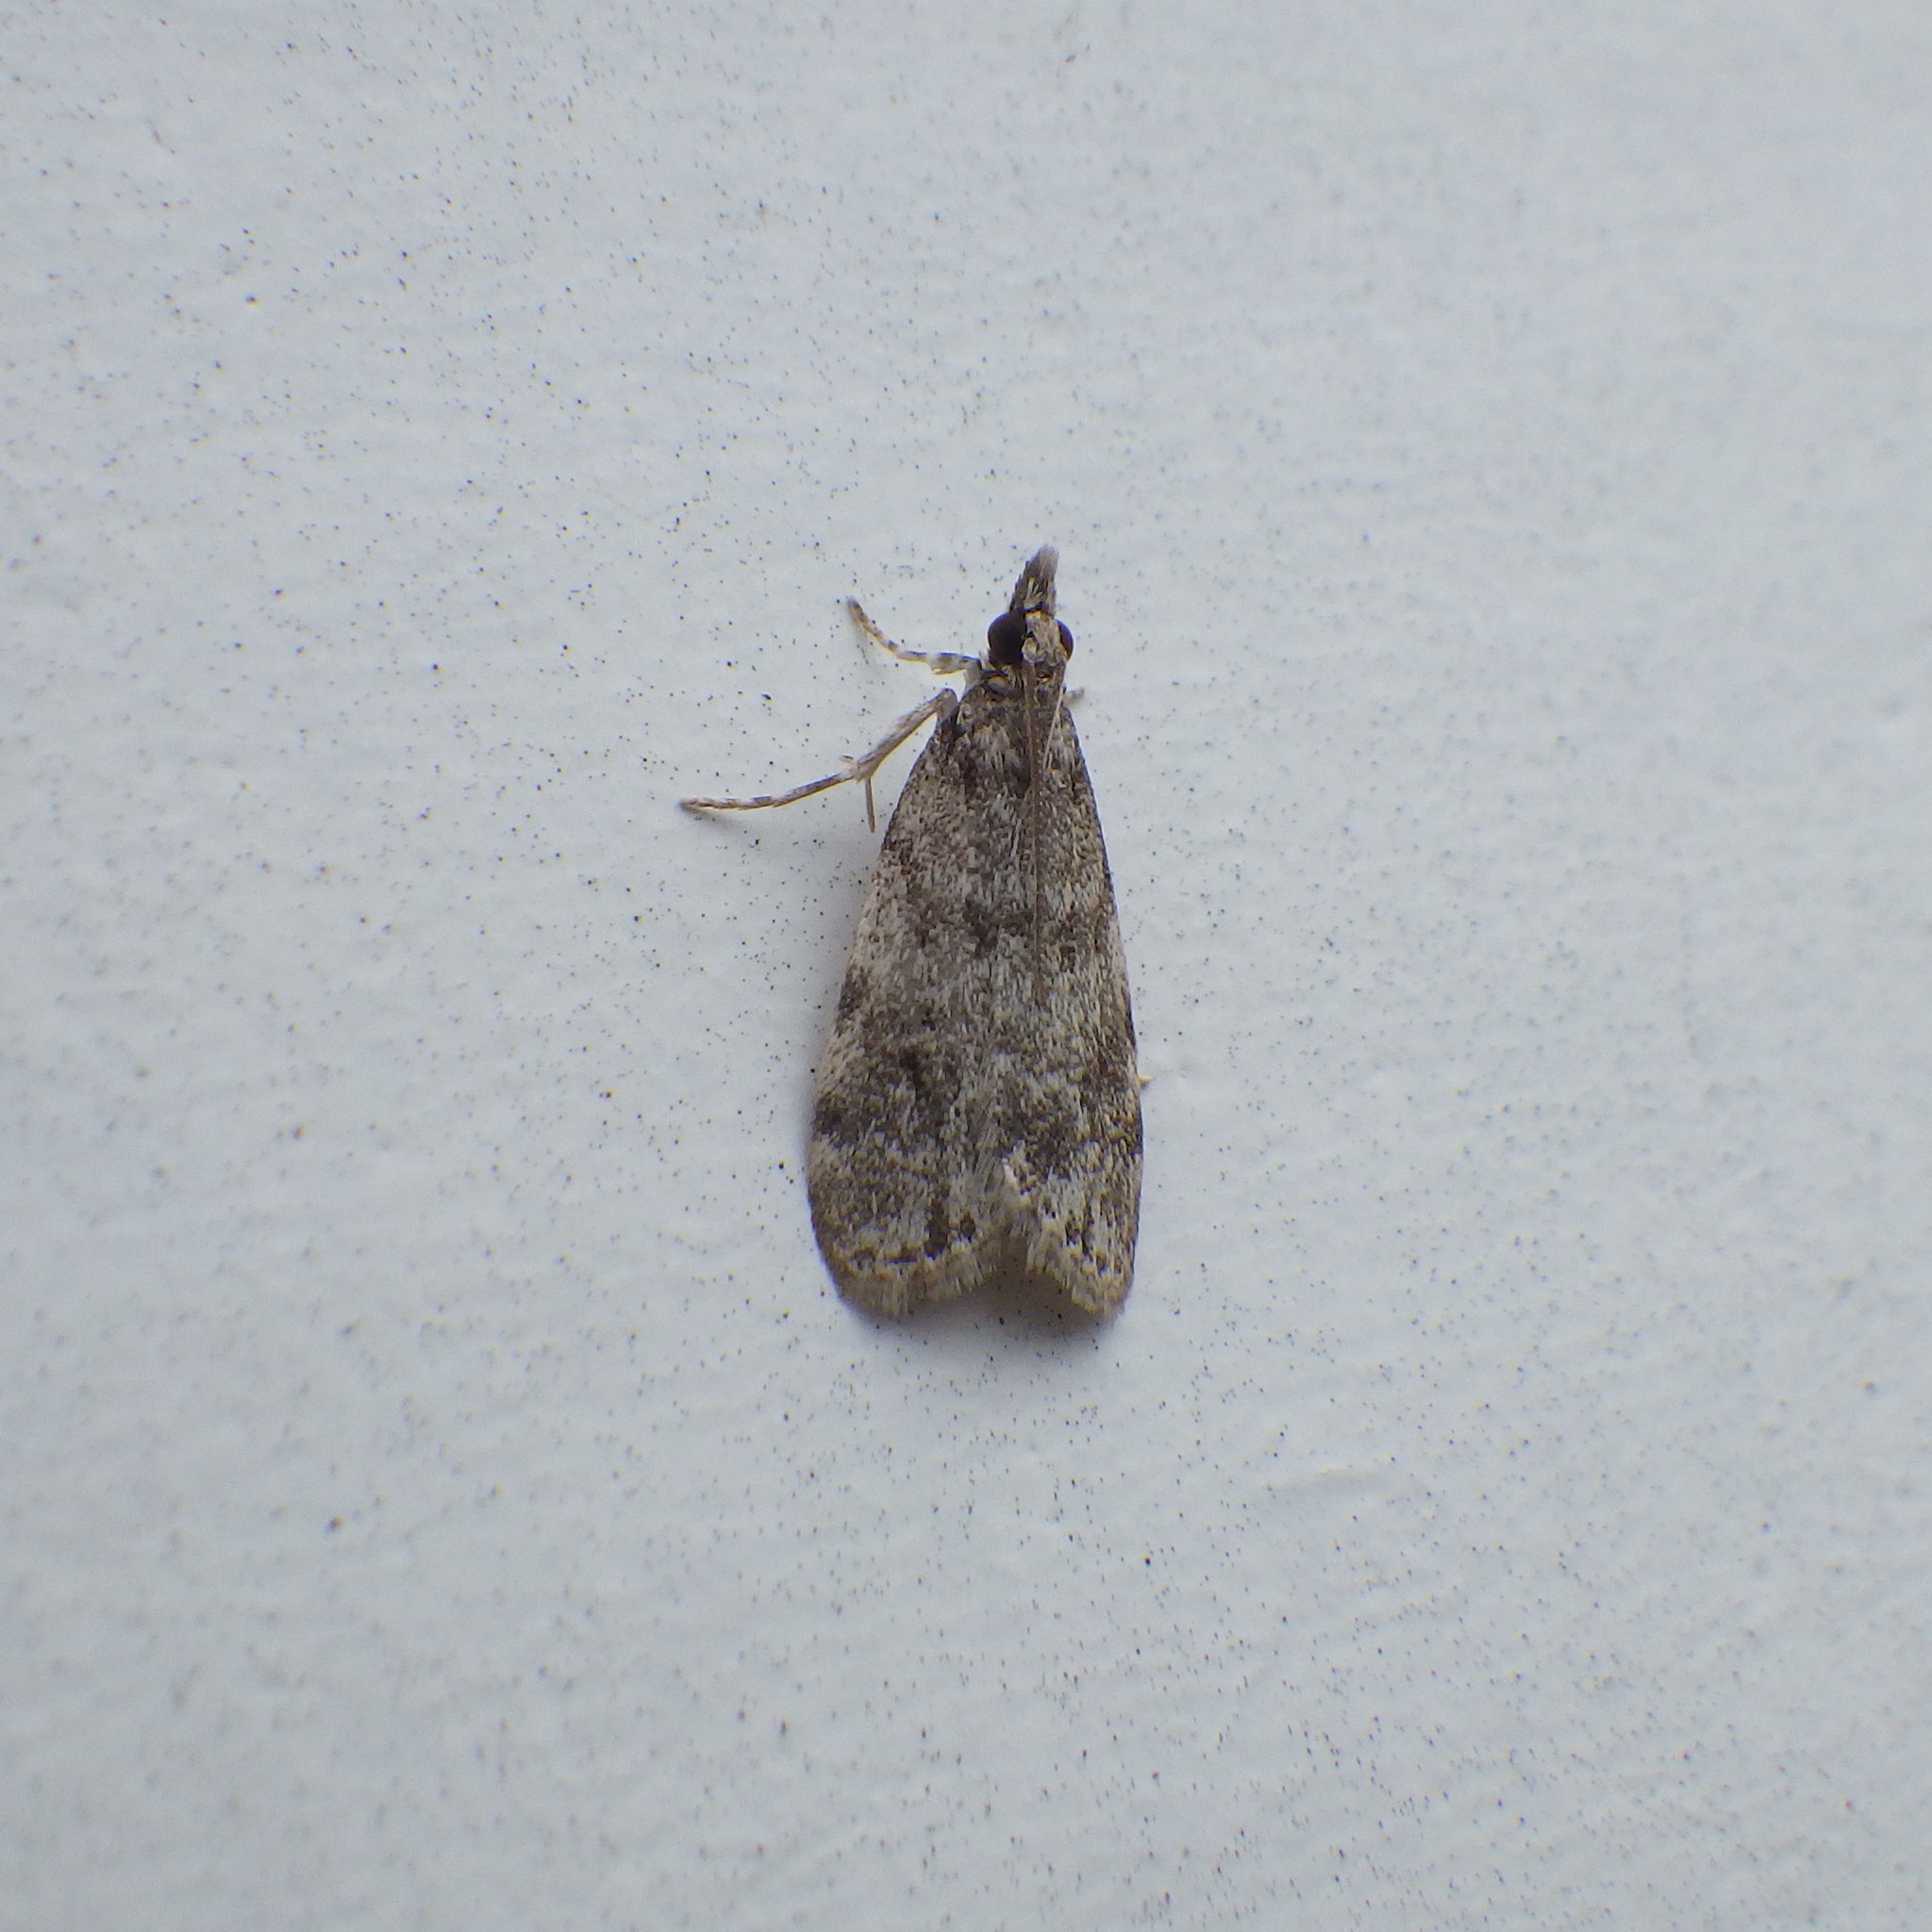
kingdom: Animalia
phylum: Arthropoda
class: Insecta
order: Lepidoptera
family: Crambidae
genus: Scoparia
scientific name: Scoparia basalis
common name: Many-spotted scoparia moth
